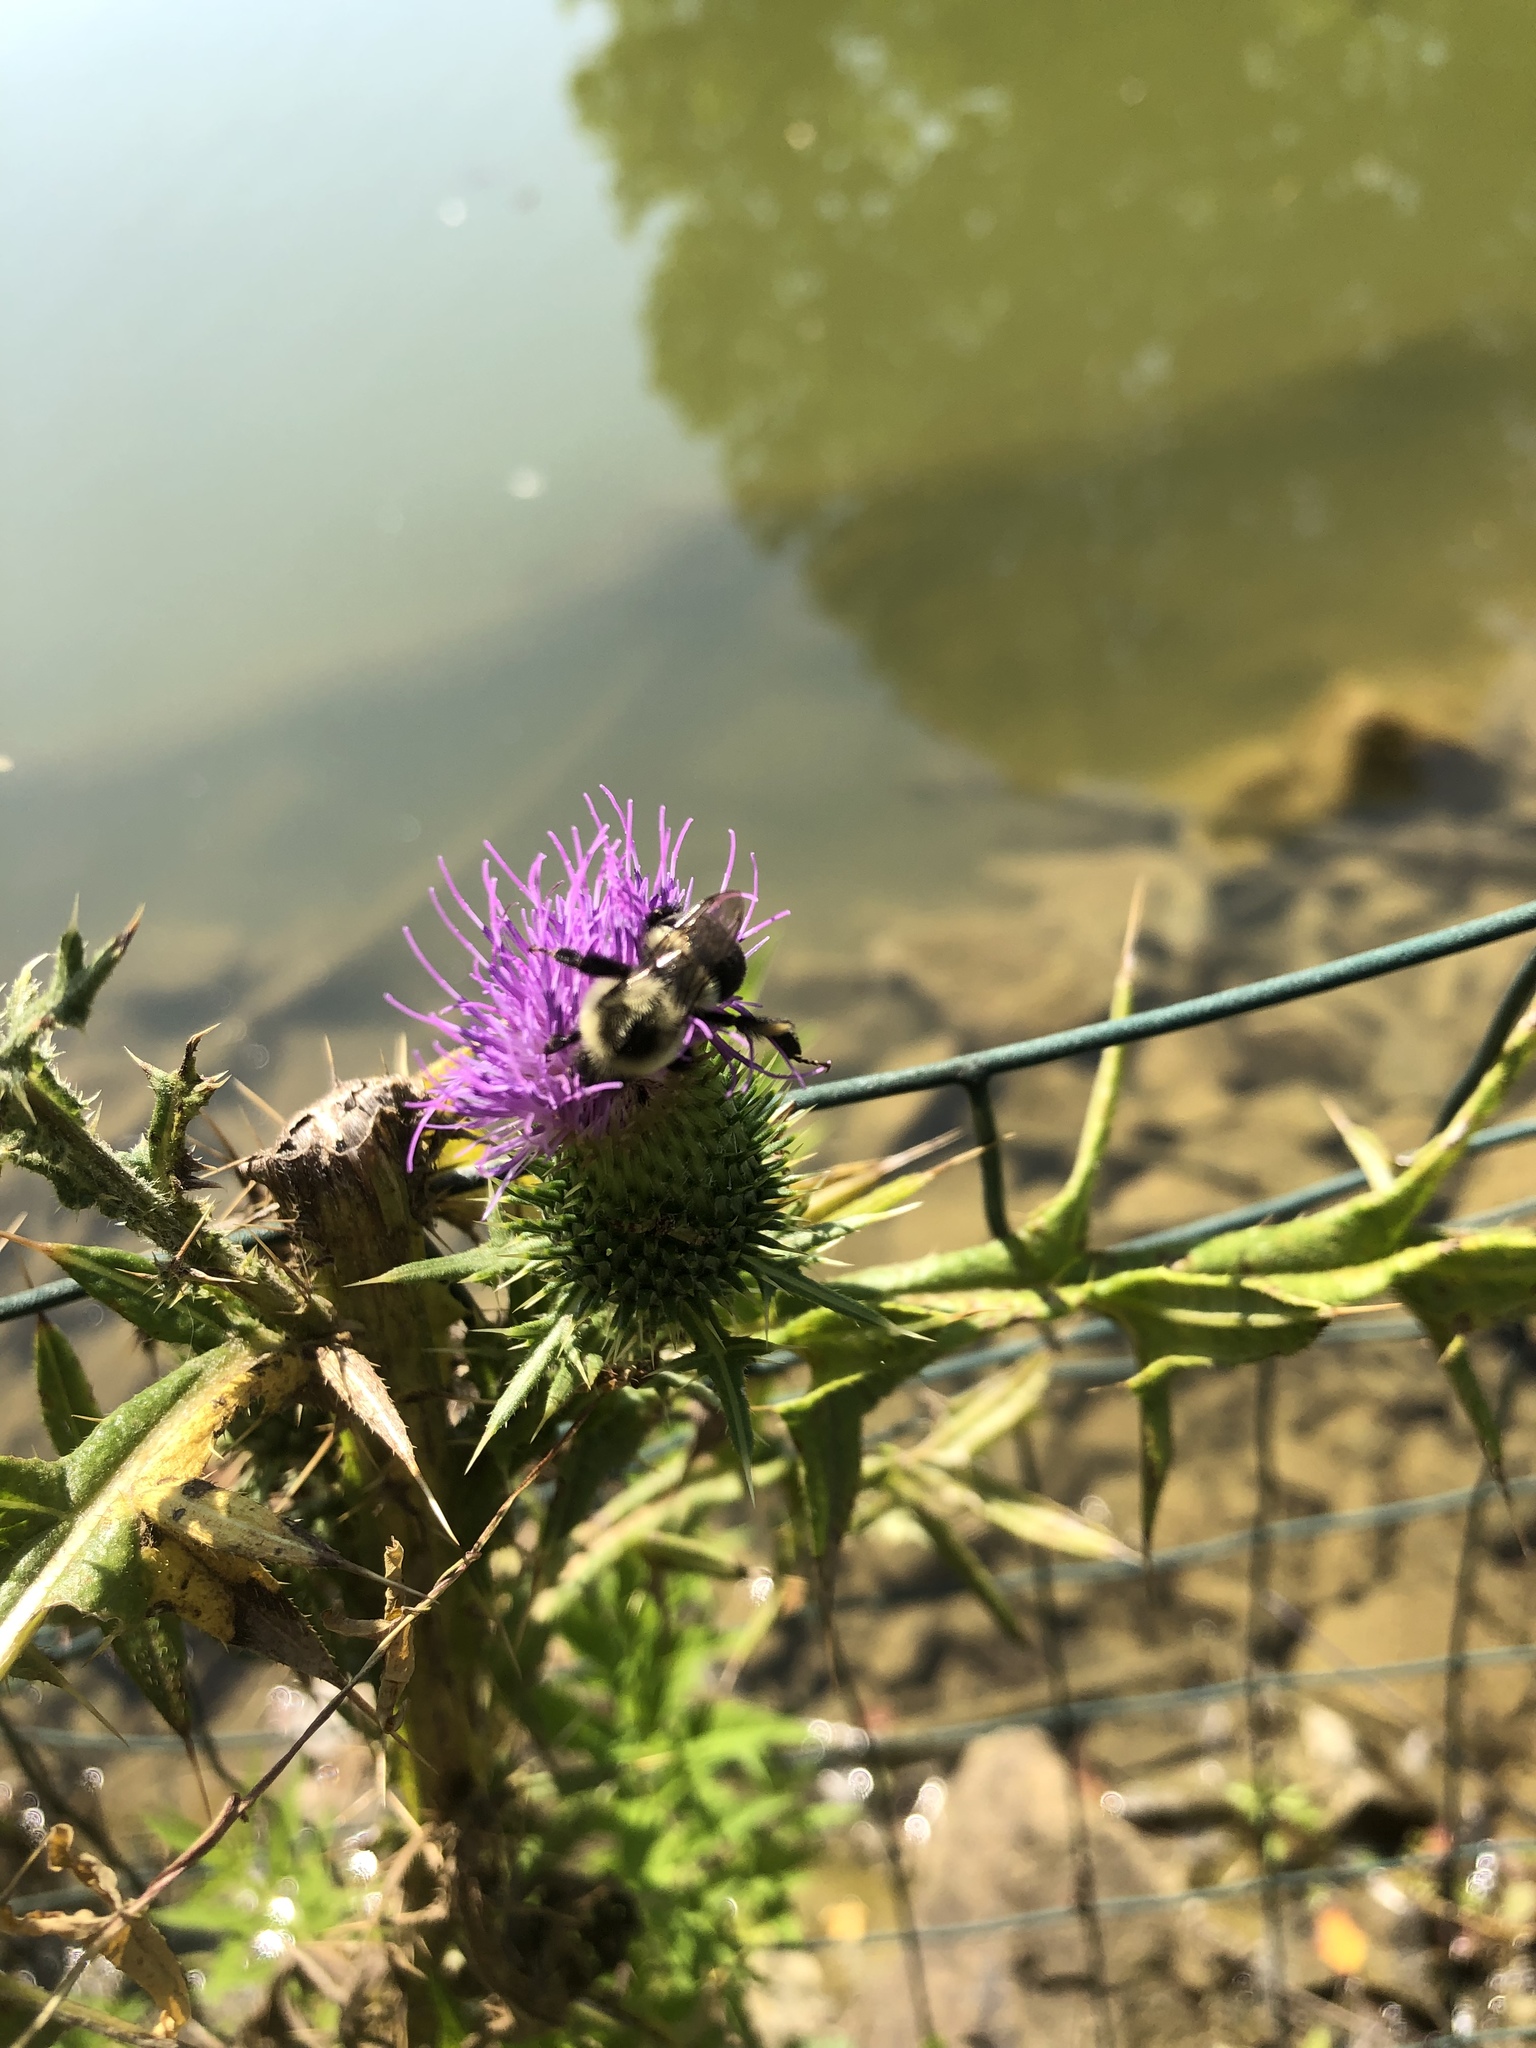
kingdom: Animalia
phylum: Arthropoda
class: Insecta
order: Hymenoptera
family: Apidae
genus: Bombus
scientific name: Bombus impatiens
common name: Common eastern bumble bee
